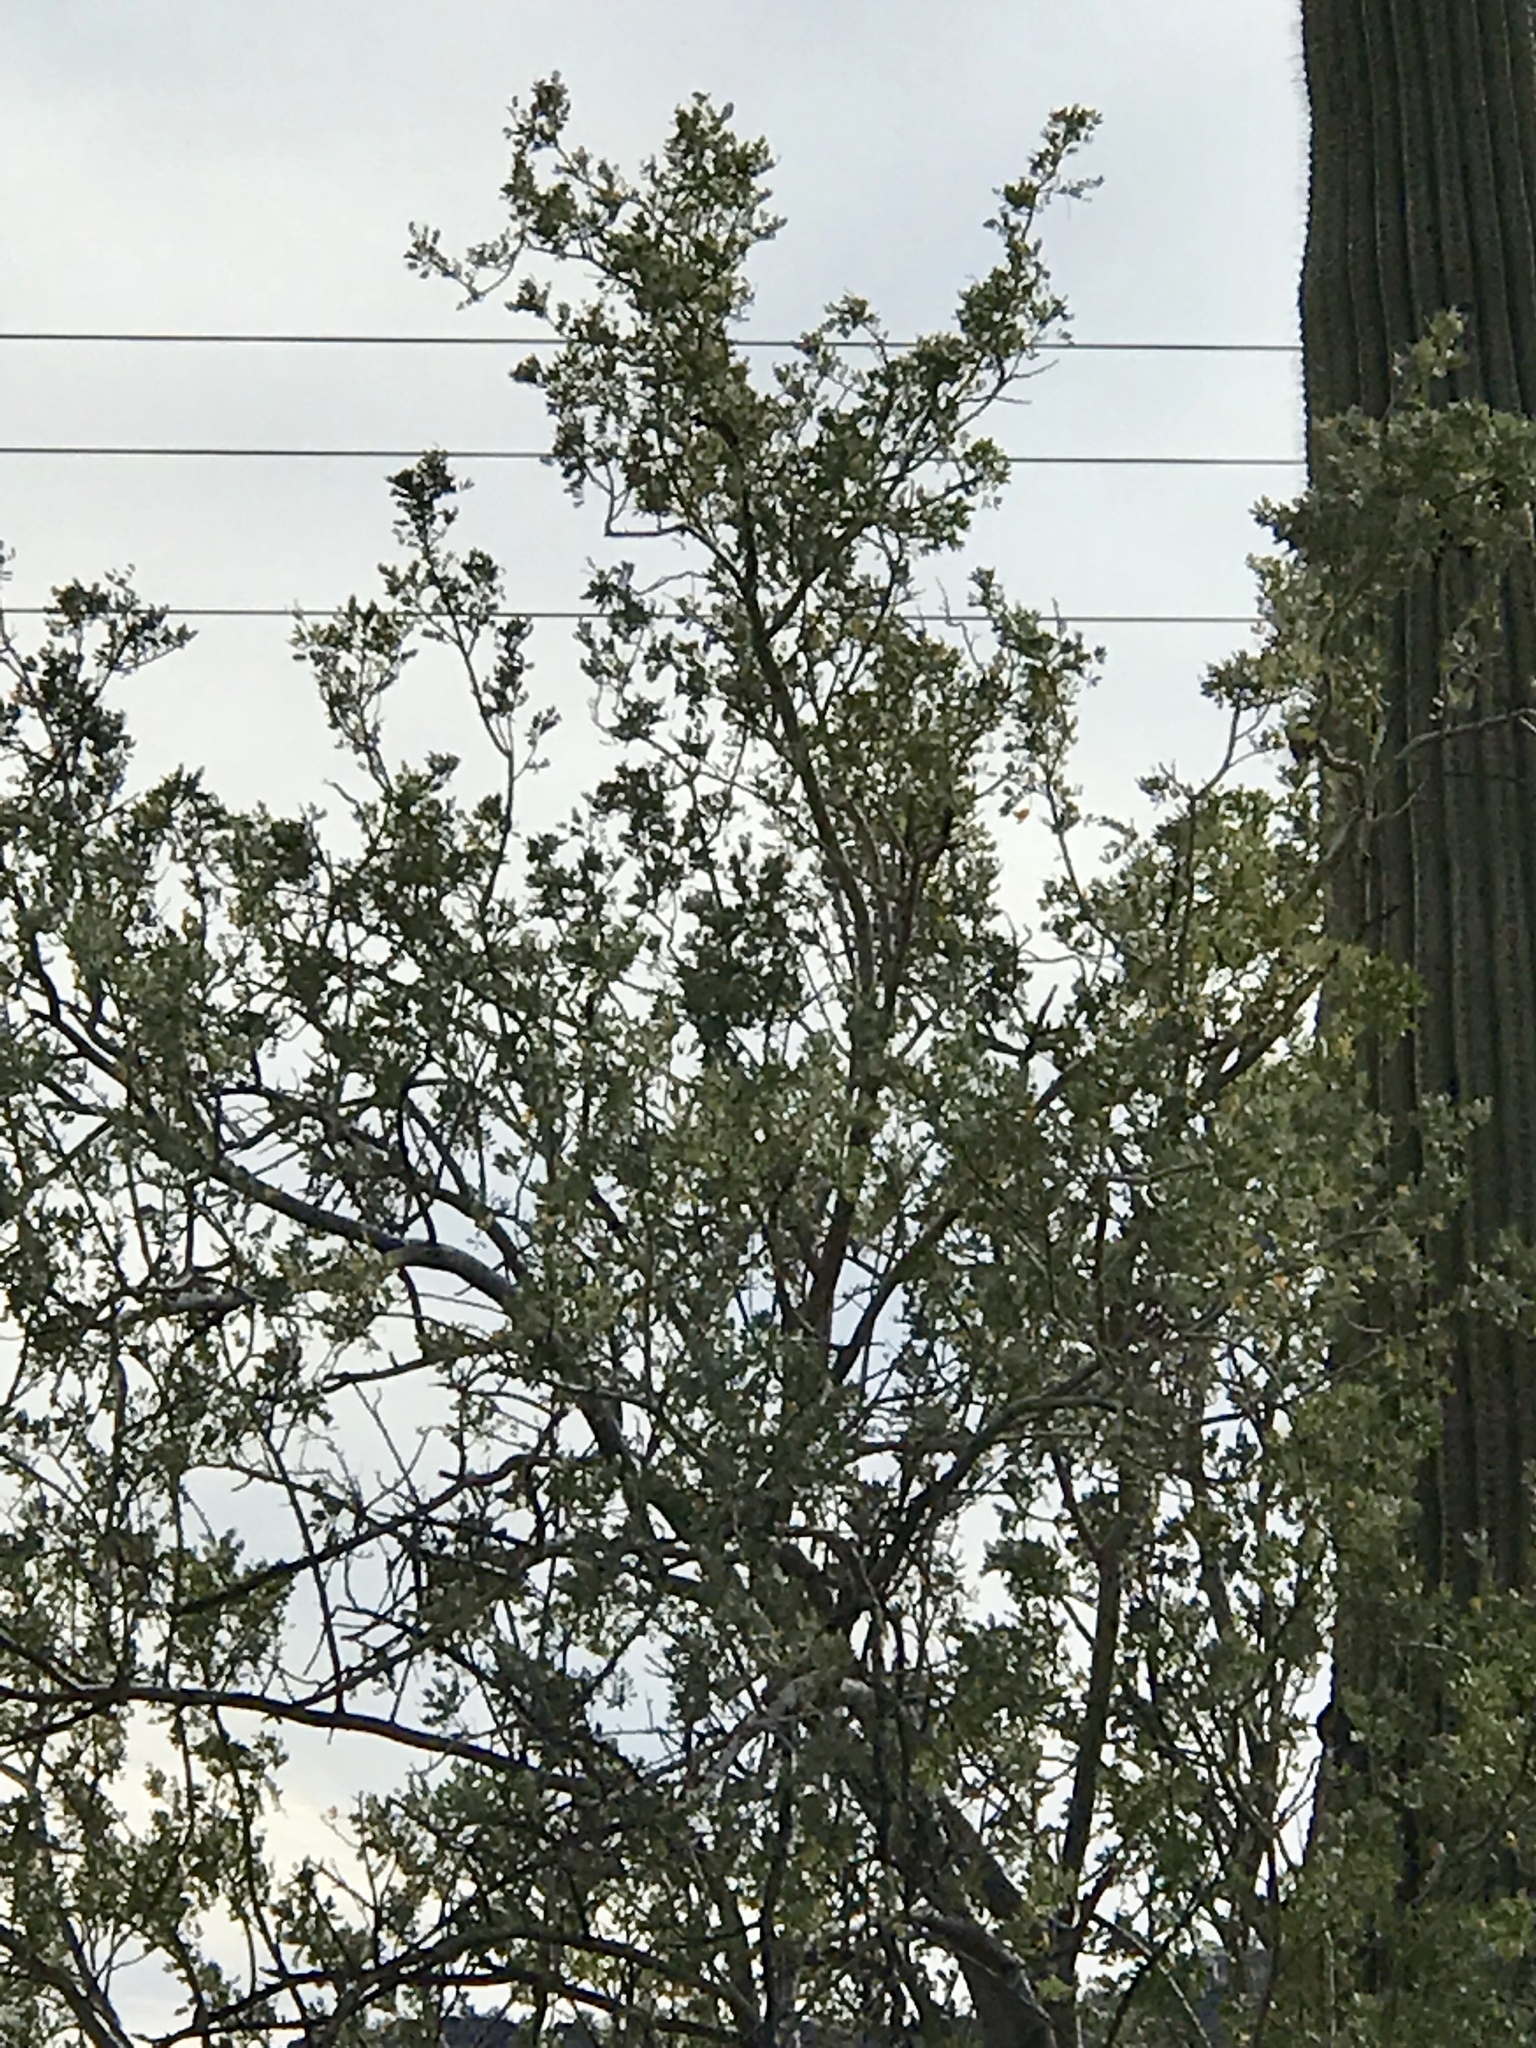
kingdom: Plantae
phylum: Tracheophyta
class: Magnoliopsida
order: Fabales
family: Fabaceae
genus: Olneya
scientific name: Olneya tesota
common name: Desert ironwood
